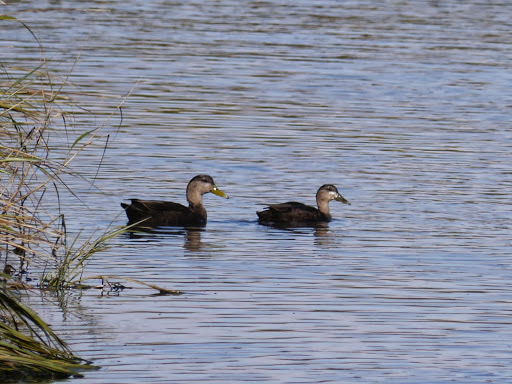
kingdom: Animalia
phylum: Chordata
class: Aves
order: Anseriformes
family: Anatidae
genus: Anas
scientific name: Anas rubripes
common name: American black duck
